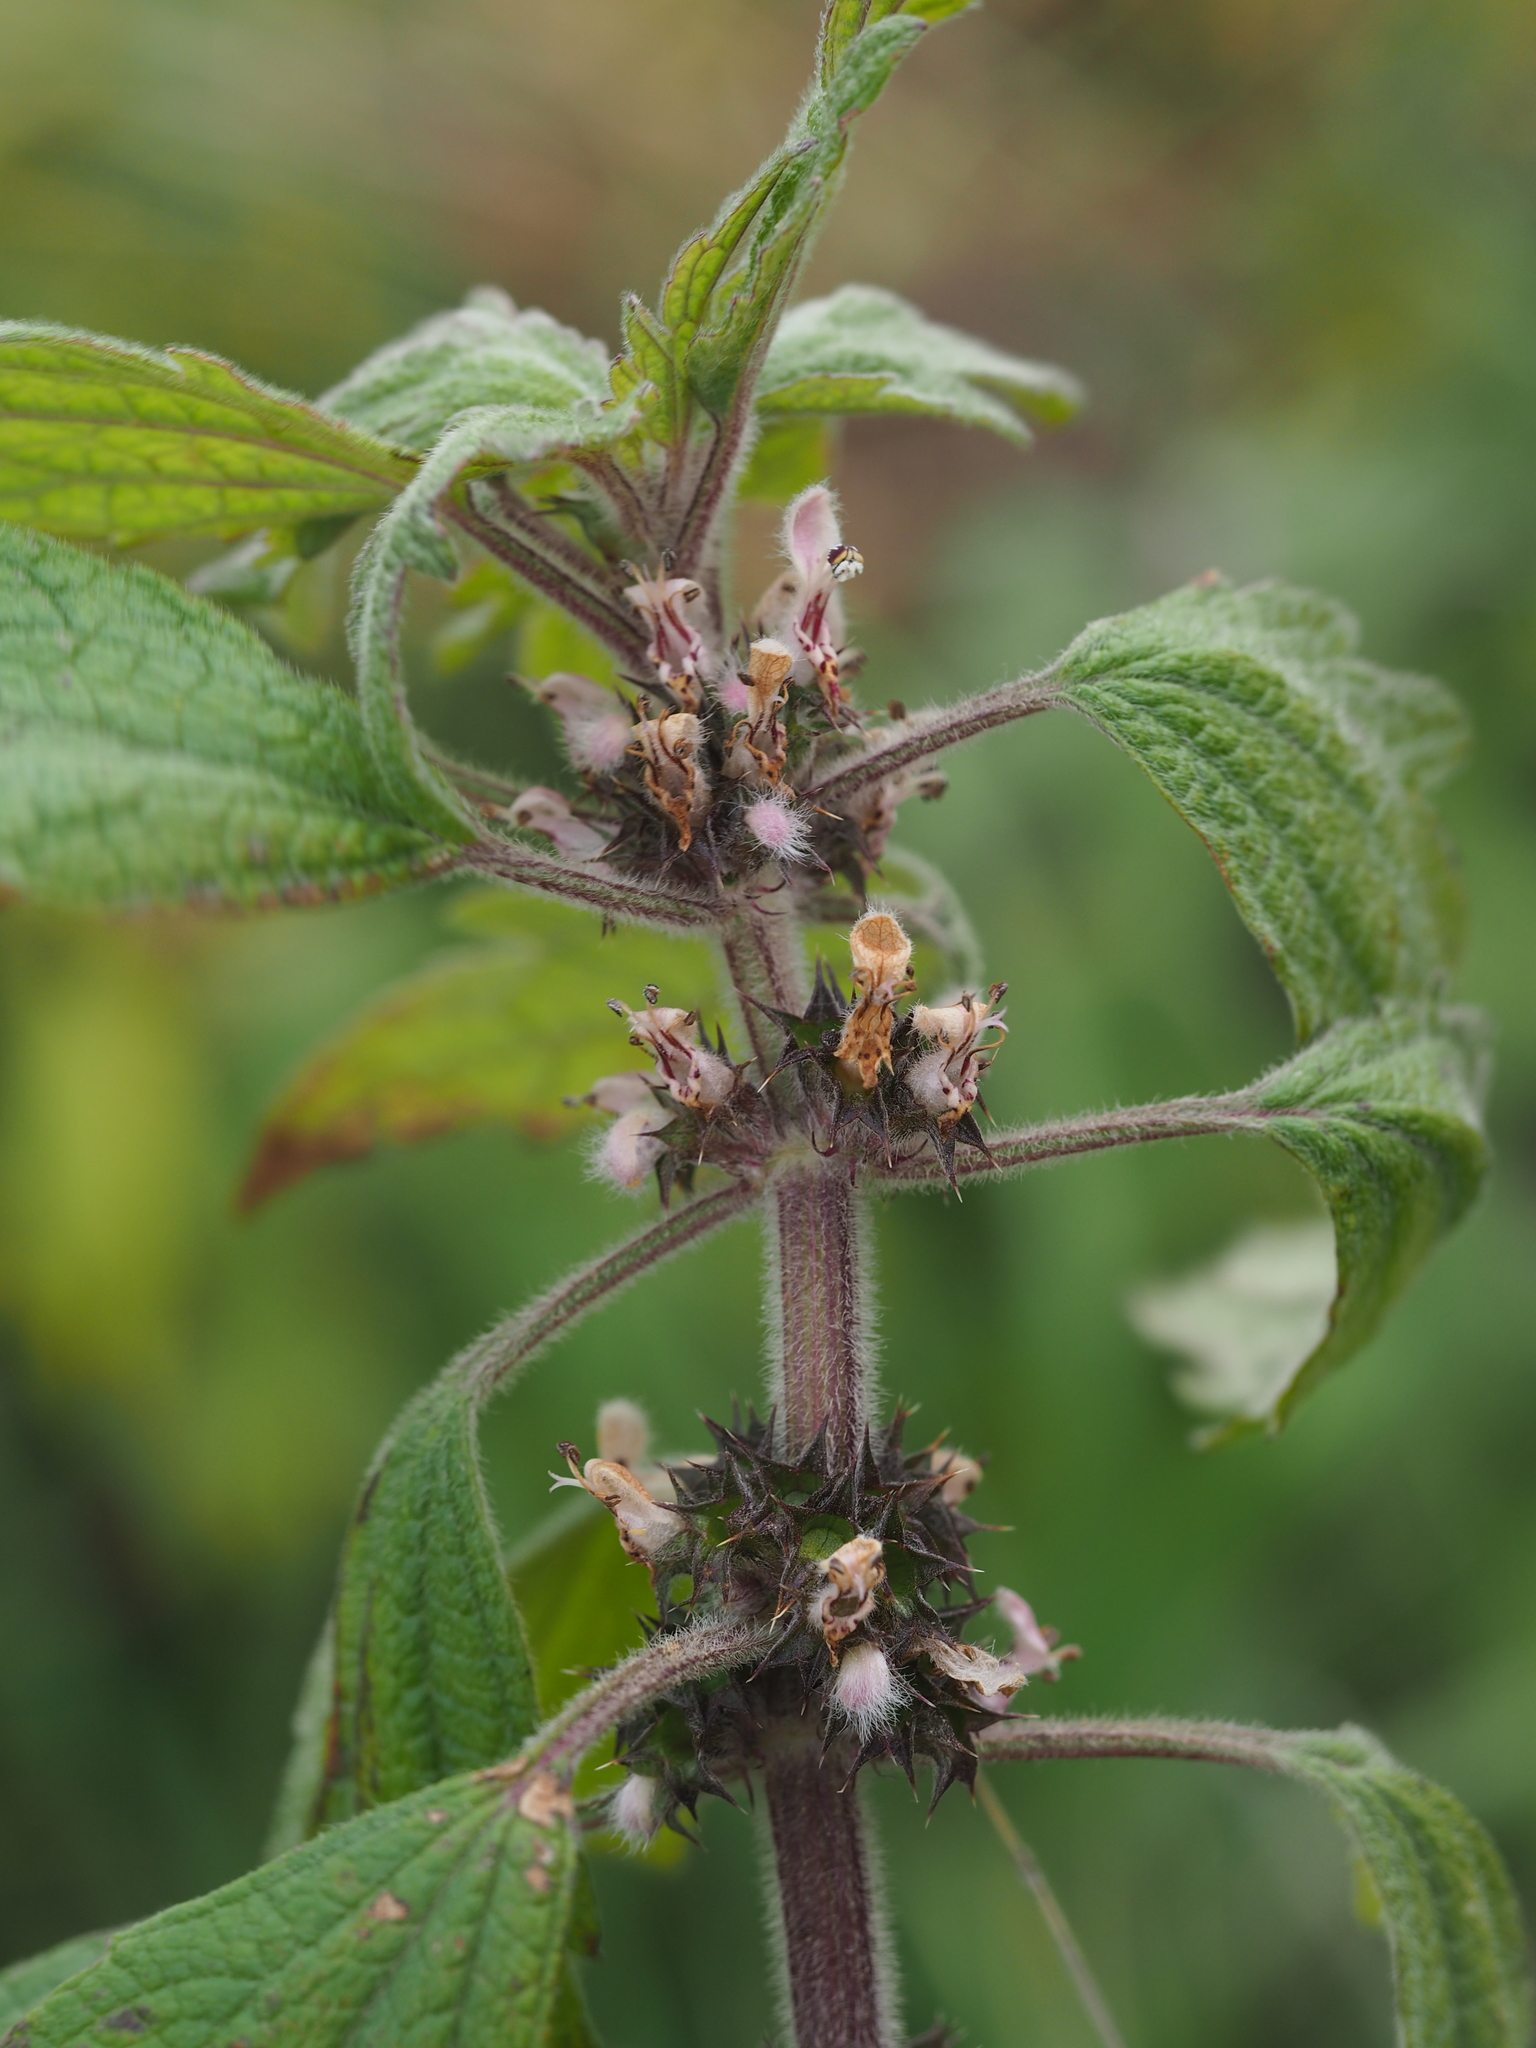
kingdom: Plantae
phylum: Tracheophyta
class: Magnoliopsida
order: Lamiales
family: Lamiaceae
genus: Leonurus
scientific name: Leonurus quinquelobatus
